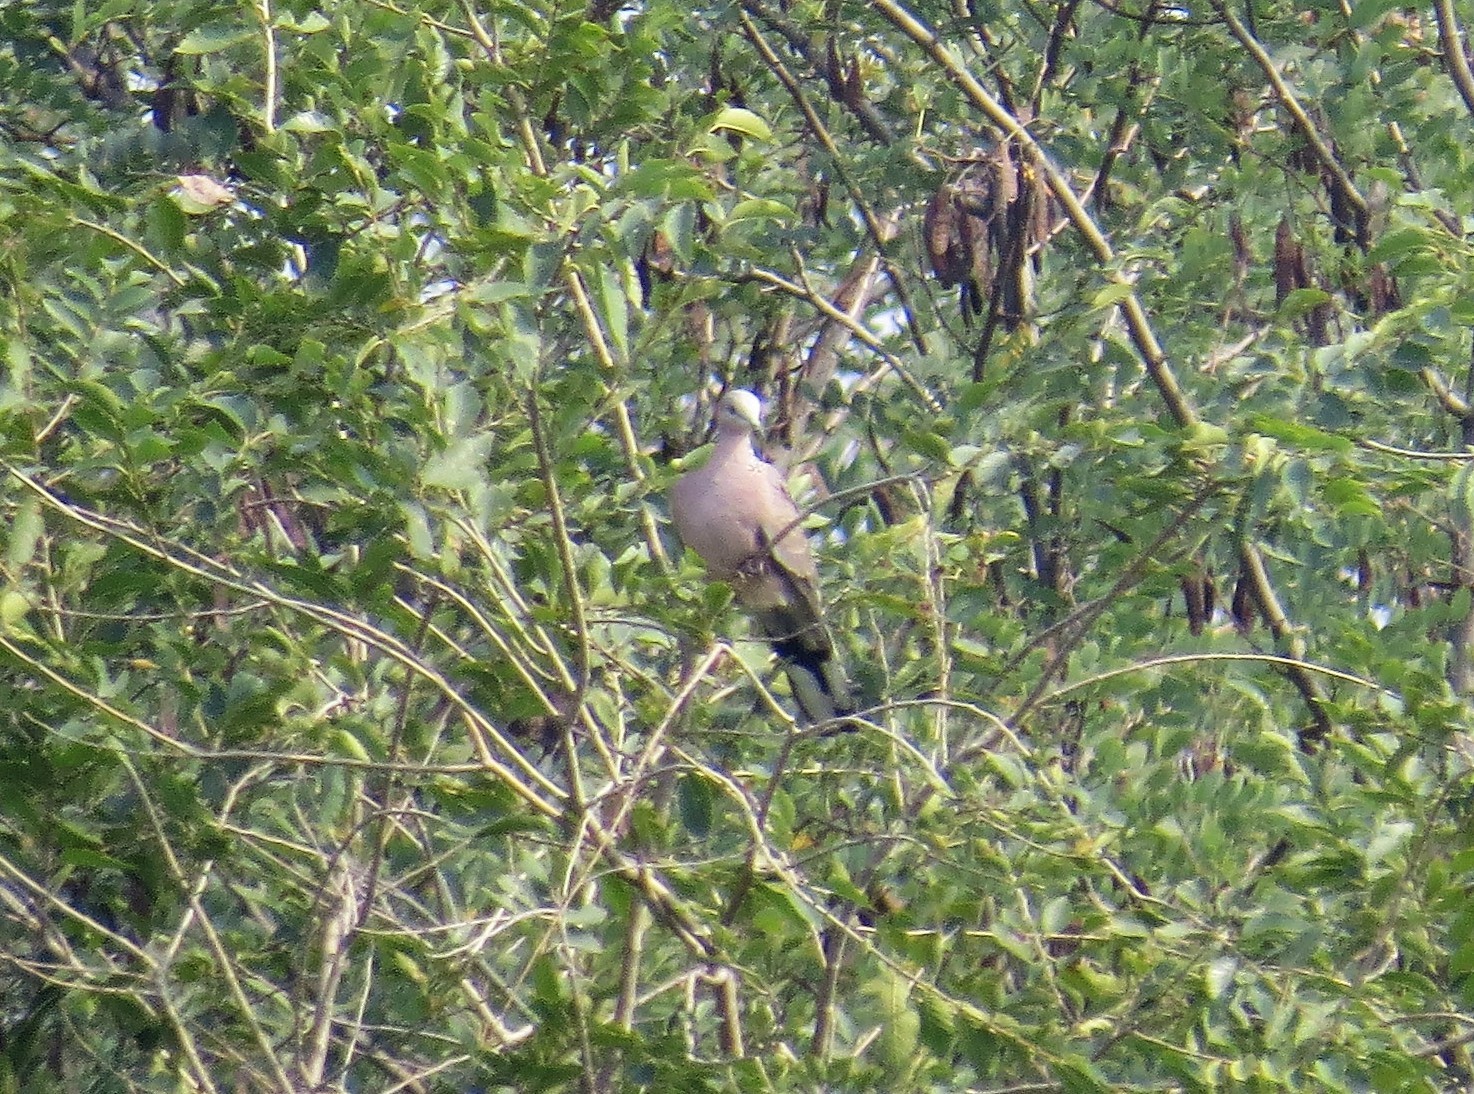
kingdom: Animalia
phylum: Chordata
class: Aves
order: Columbiformes
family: Columbidae
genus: Streptopelia
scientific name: Streptopelia decaocto
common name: Eurasian collared dove
